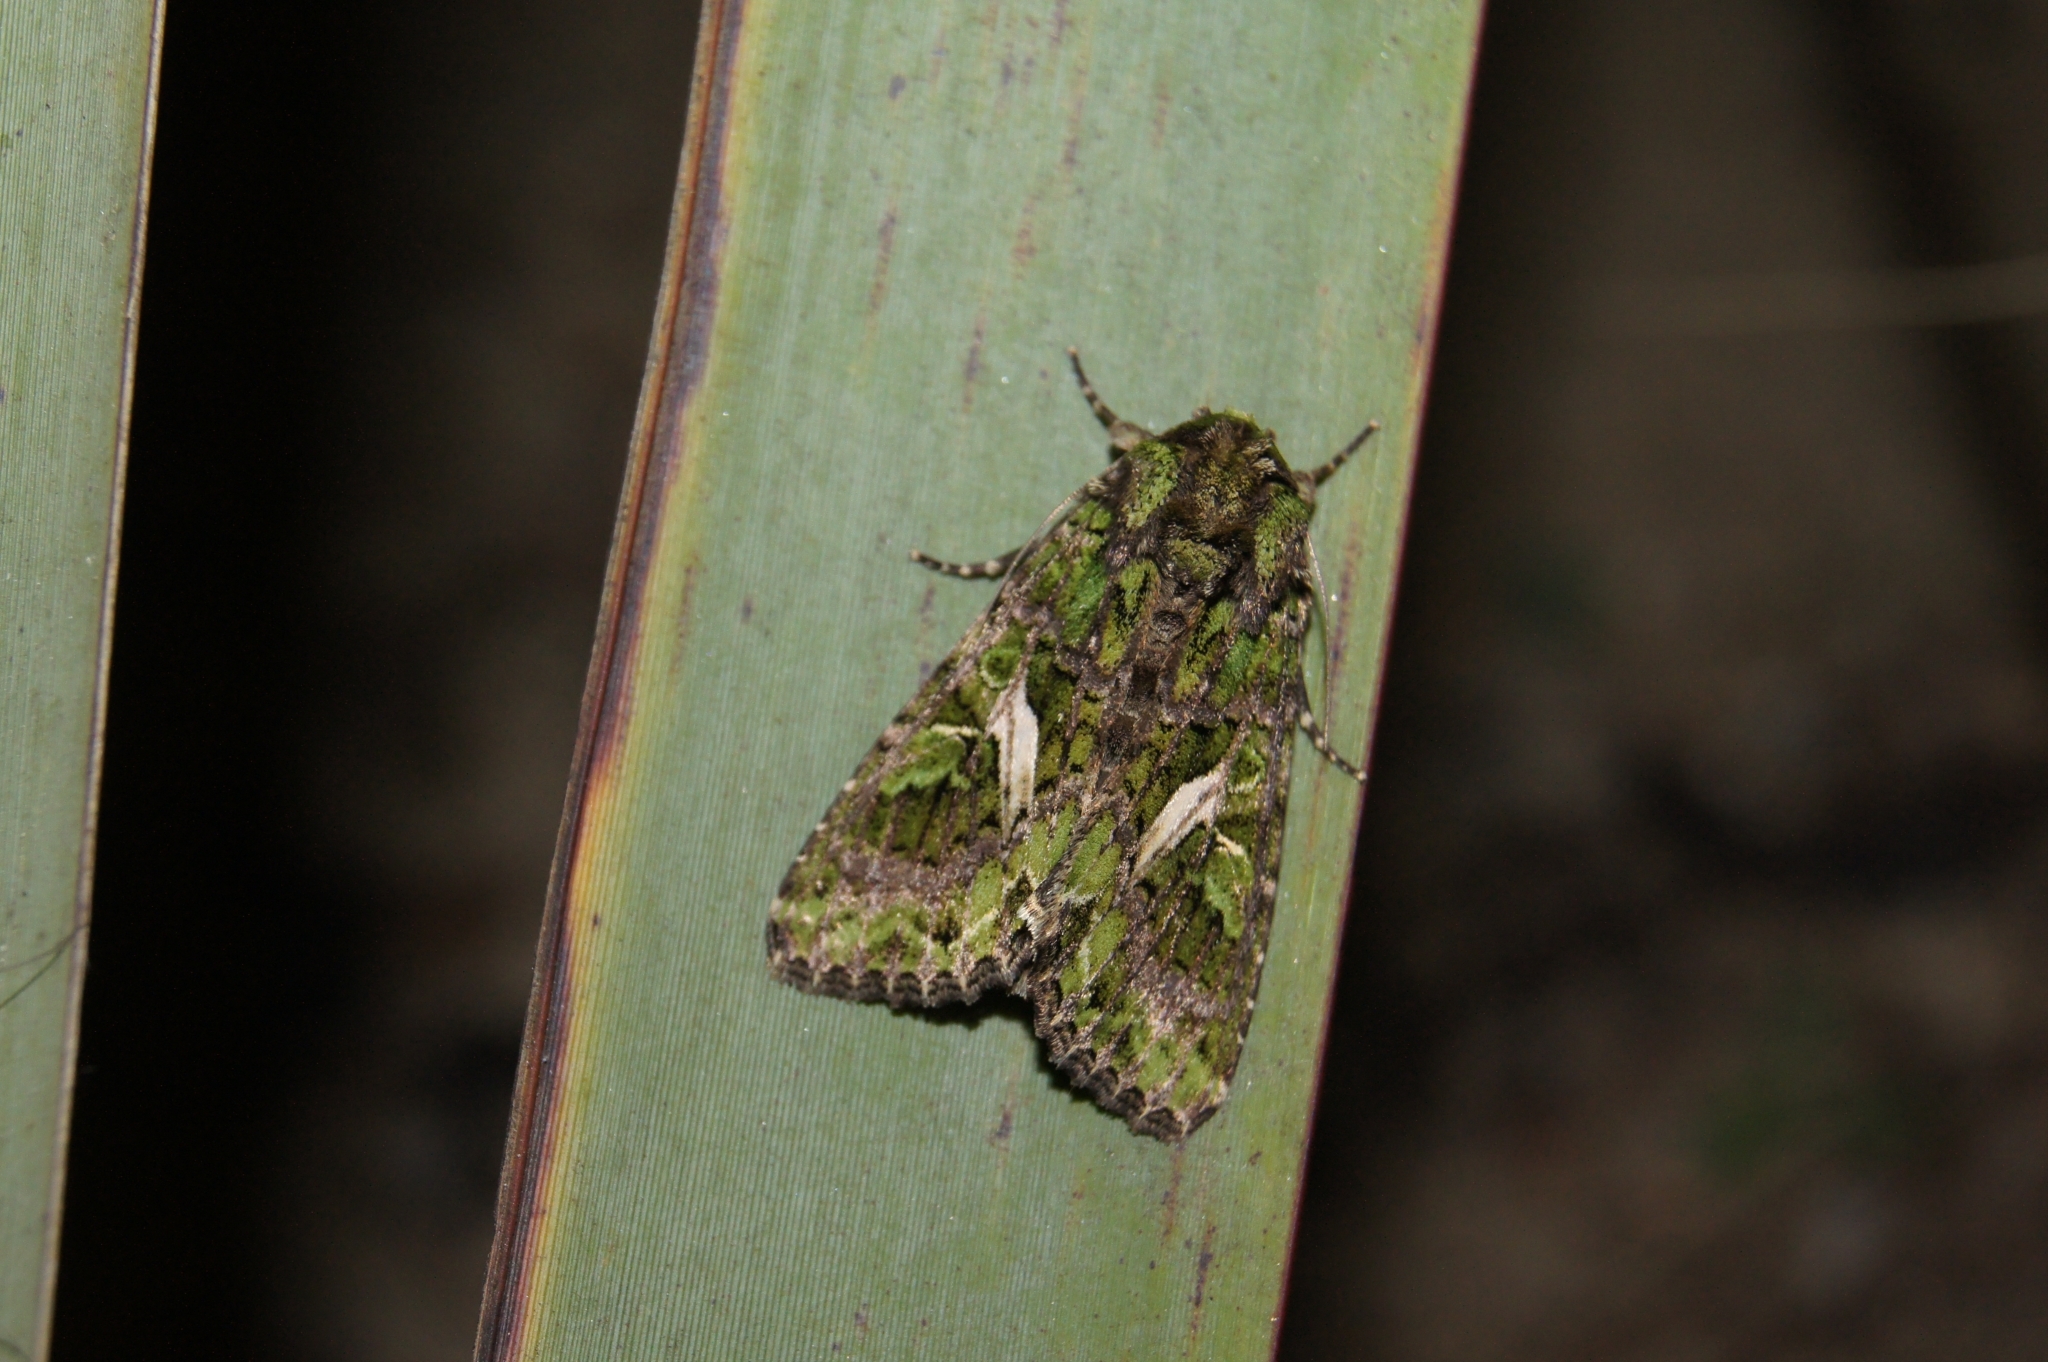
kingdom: Animalia
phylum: Arthropoda
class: Insecta
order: Lepidoptera
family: Noctuidae
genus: Trachea
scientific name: Trachea atriplicis
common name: Orache moth
